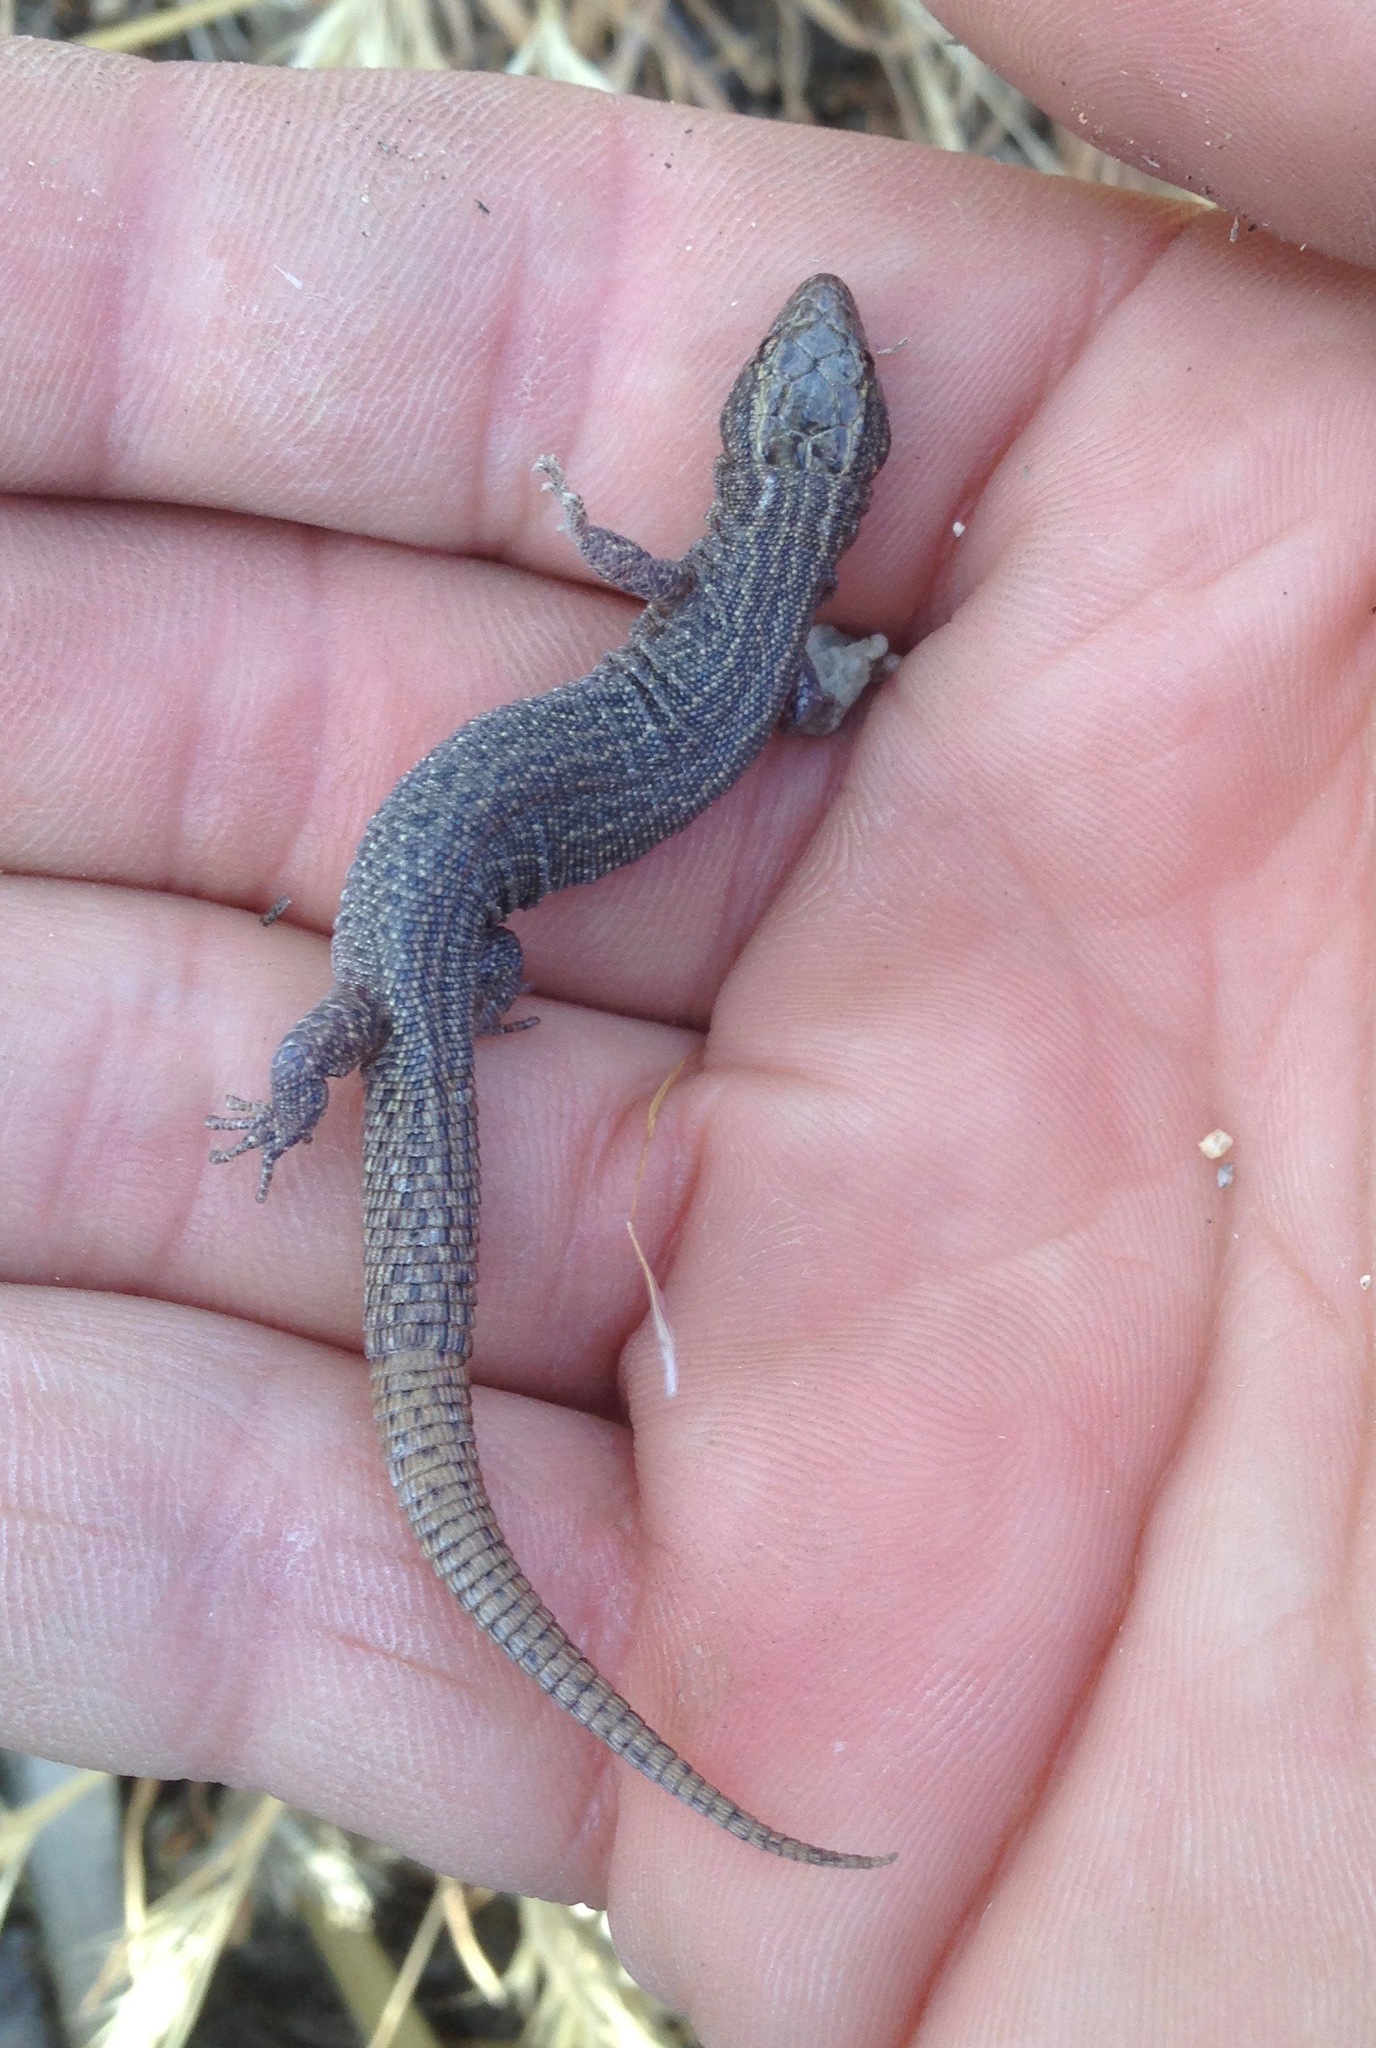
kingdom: Animalia
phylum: Chordata
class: Squamata
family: Xantusiidae
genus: Xantusia
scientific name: Xantusia vigilis
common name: Desert night lizard
